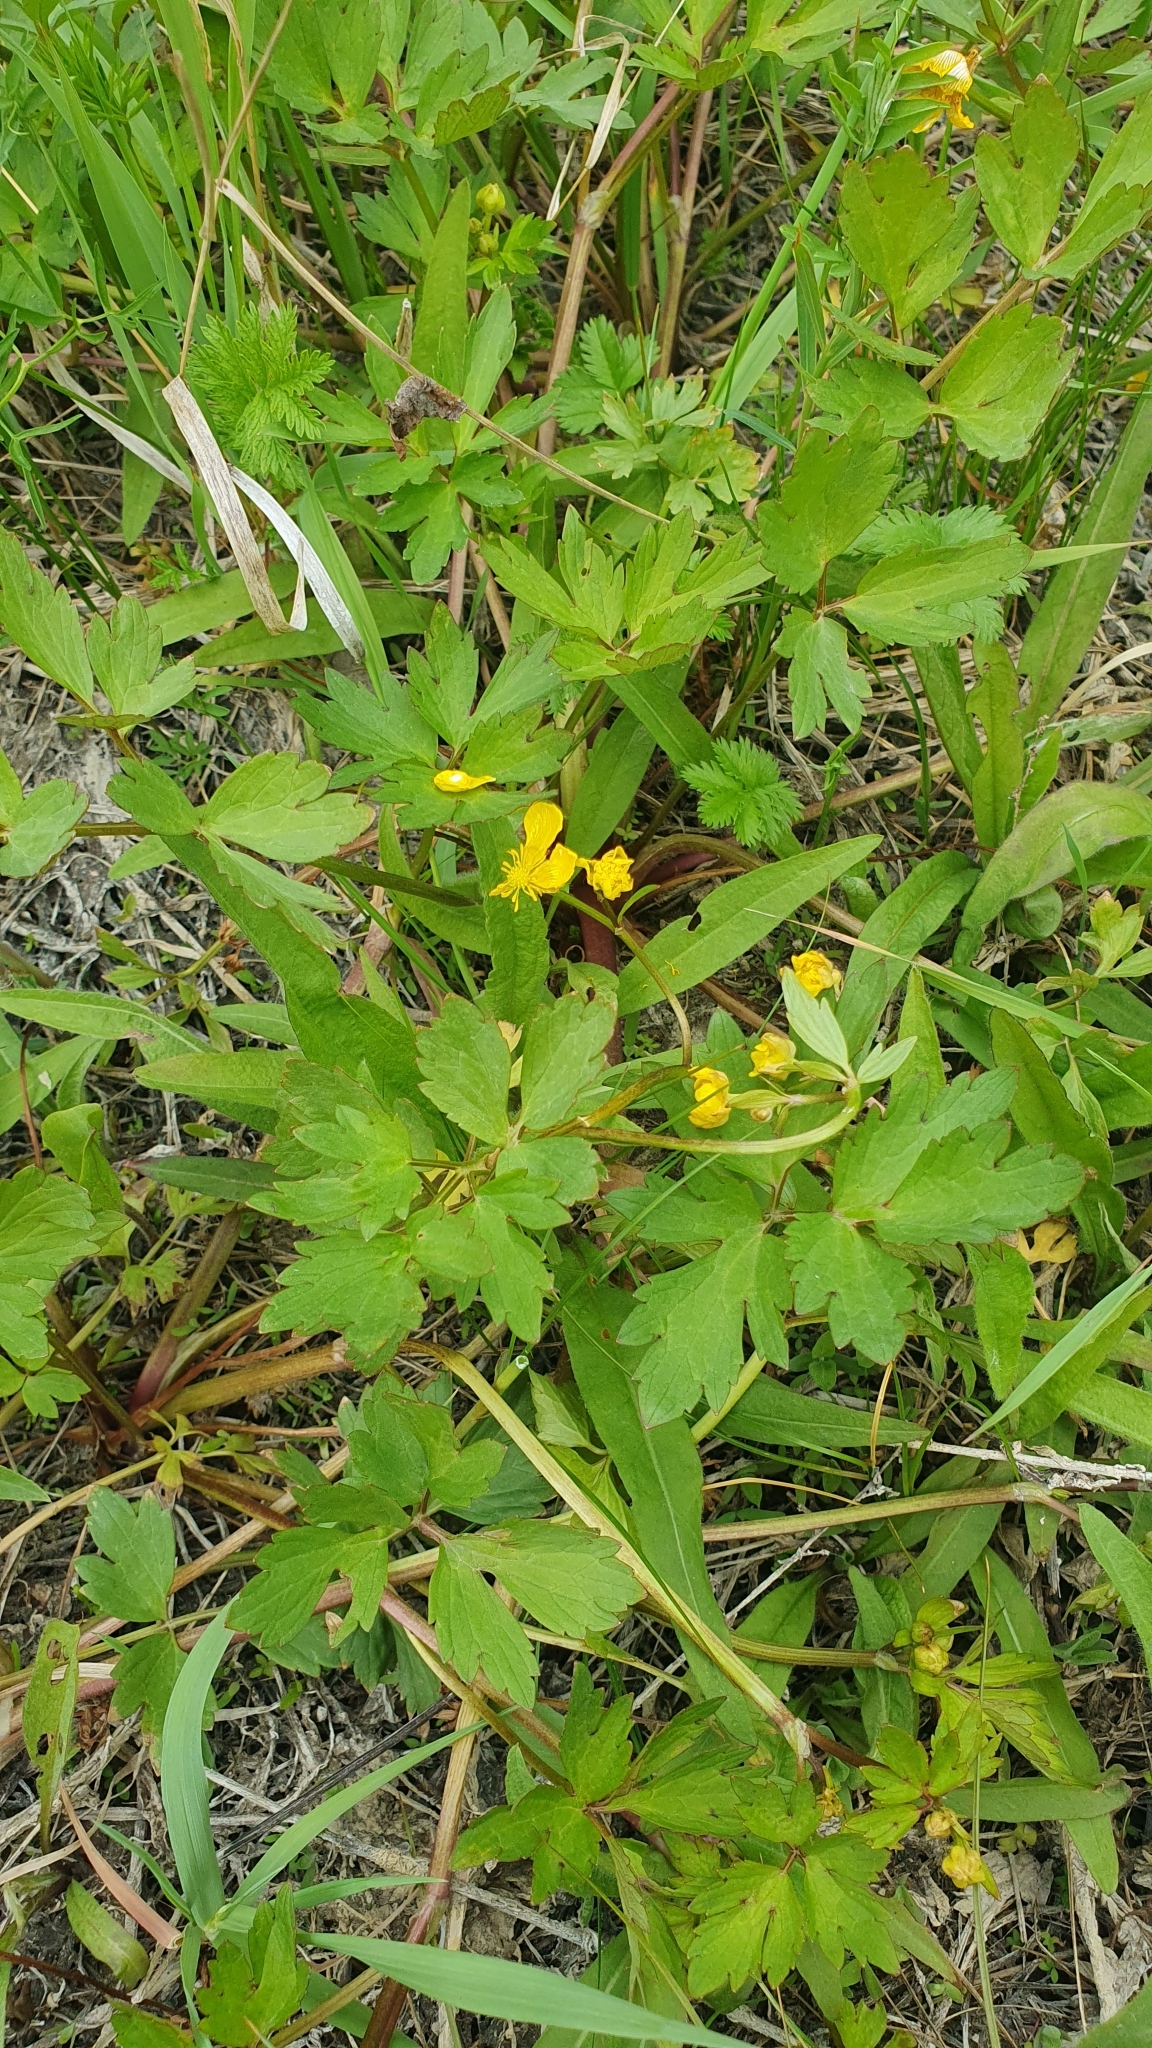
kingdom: Plantae
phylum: Tracheophyta
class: Magnoliopsida
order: Ranunculales
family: Ranunculaceae
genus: Ranunculus
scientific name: Ranunculus repens
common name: Creeping buttercup
